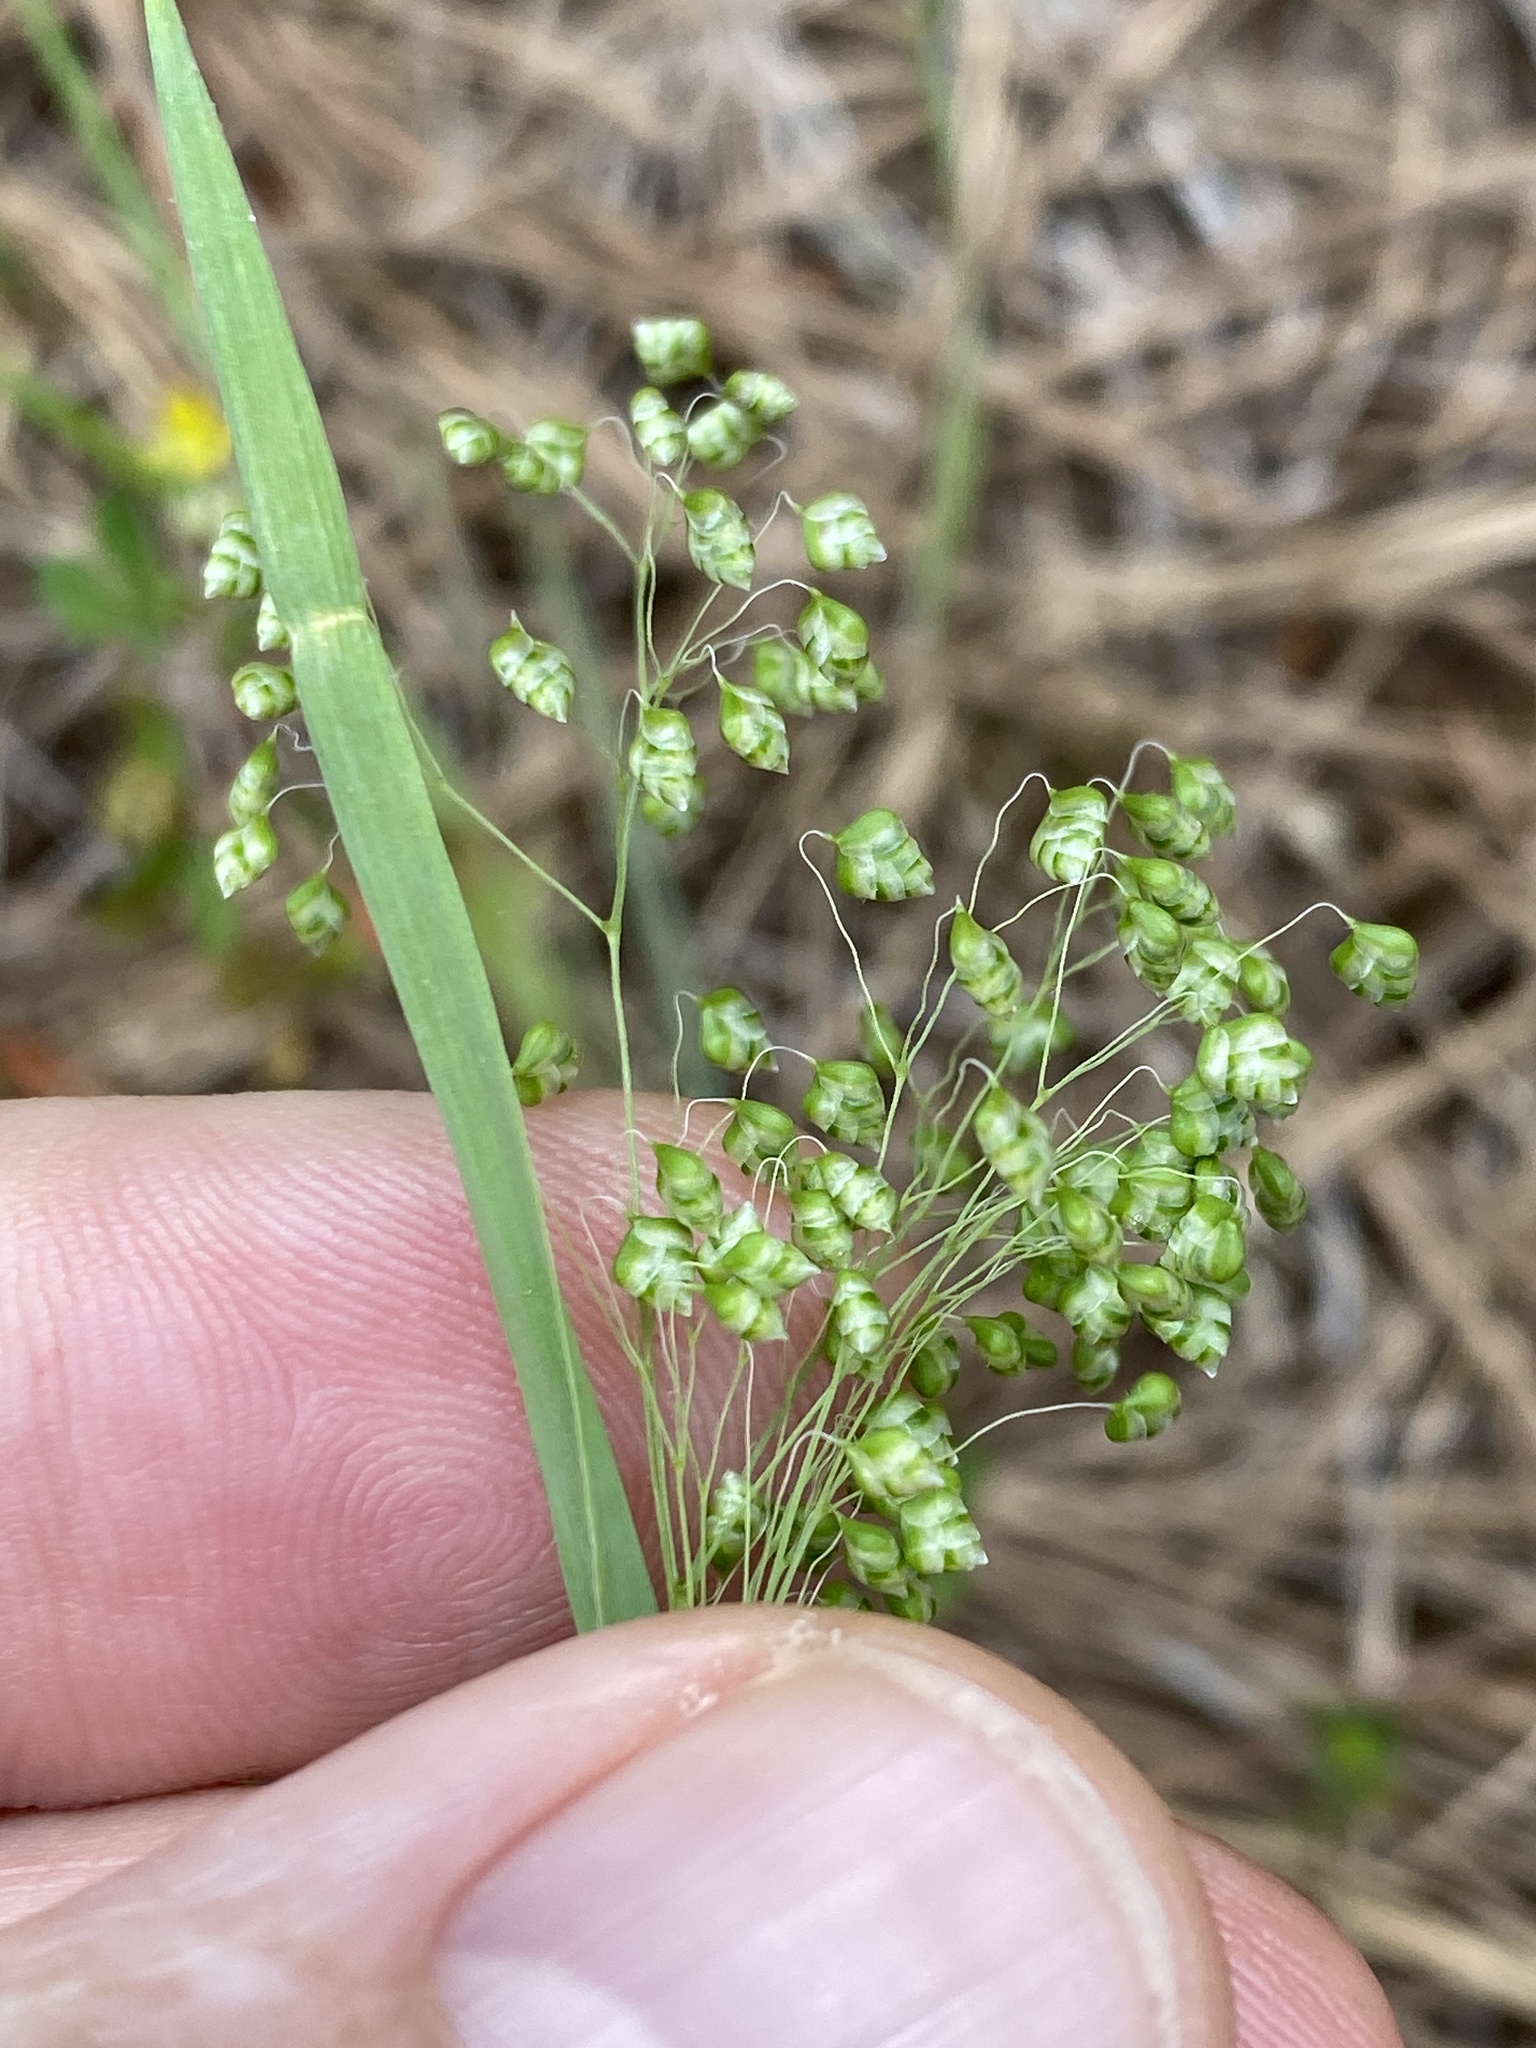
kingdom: Plantae
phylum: Tracheophyta
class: Liliopsida
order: Poales
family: Poaceae
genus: Briza
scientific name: Briza minor
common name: Lesser quaking-grass
